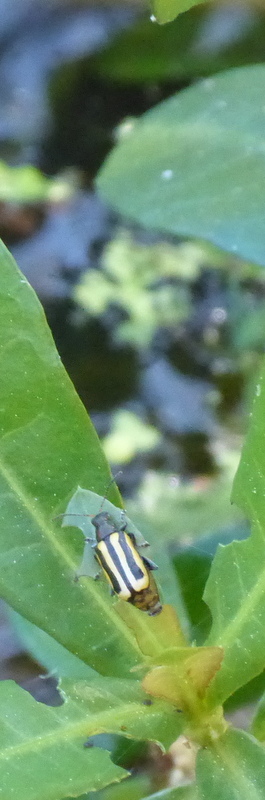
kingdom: Animalia
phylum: Arthropoda
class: Insecta
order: Coleoptera
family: Chrysomelidae
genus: Agasicles
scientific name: Agasicles hygrophila
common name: Alligatorweed flea beetle
